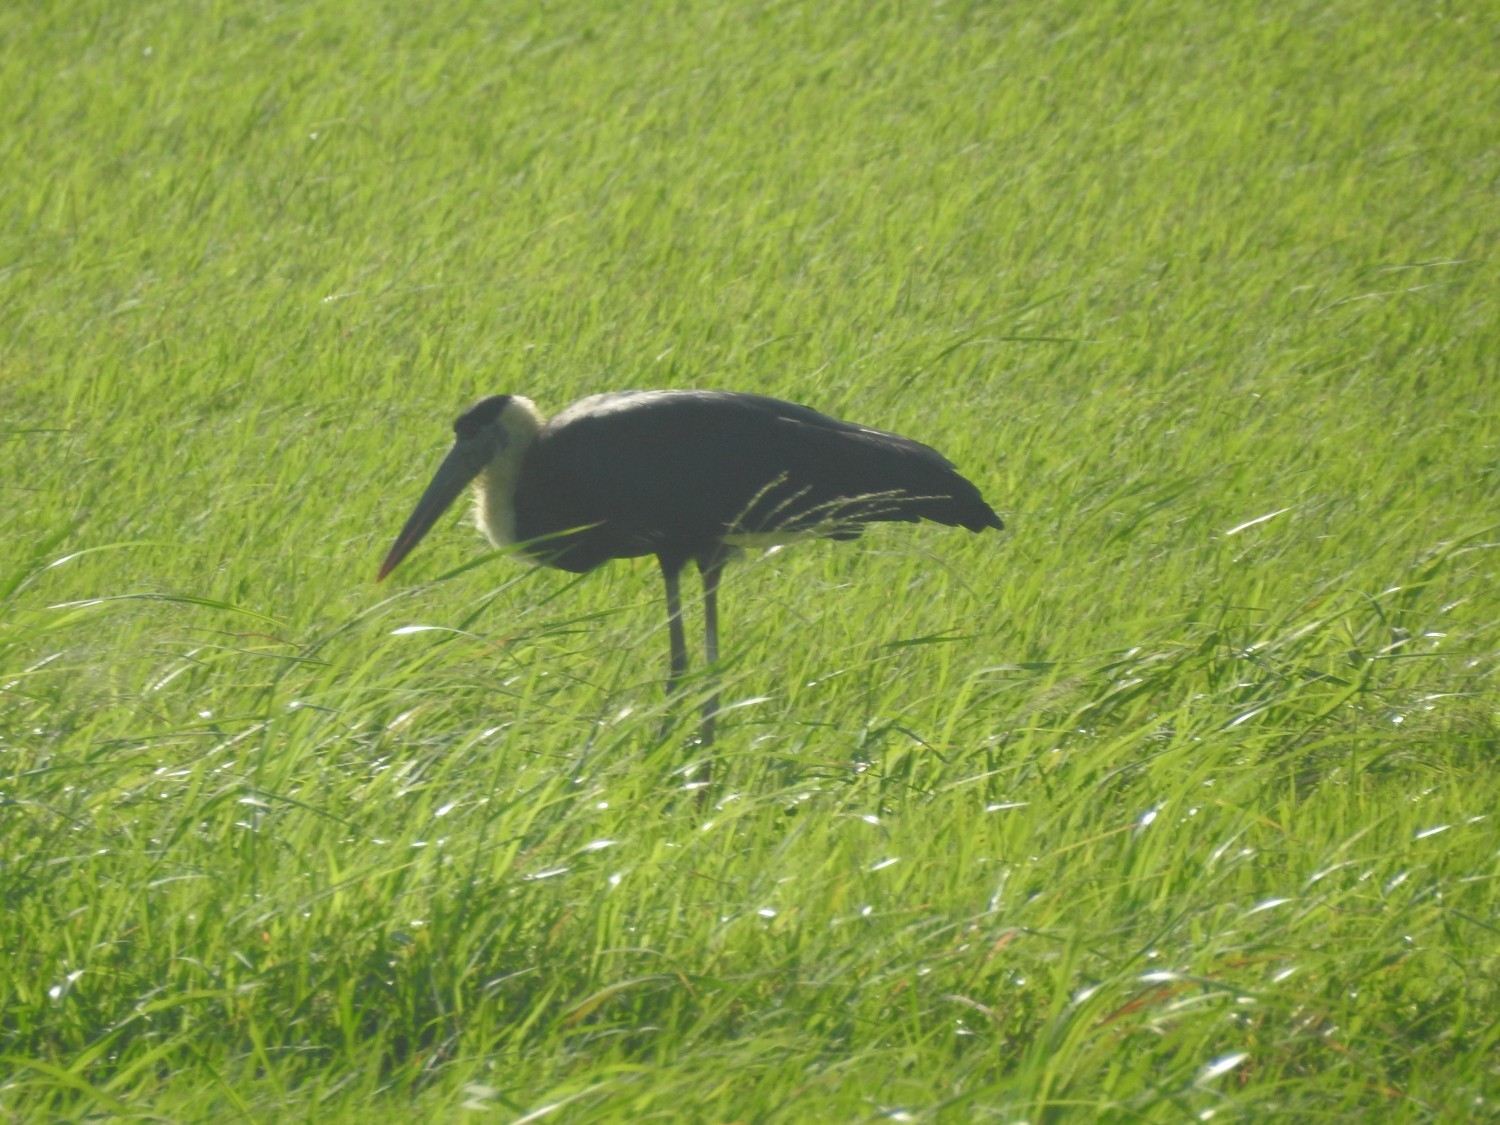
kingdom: Animalia
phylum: Chordata
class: Aves
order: Ciconiiformes
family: Ciconiidae
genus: Ciconia
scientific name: Ciconia episcopus
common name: Woolly-necked stork
